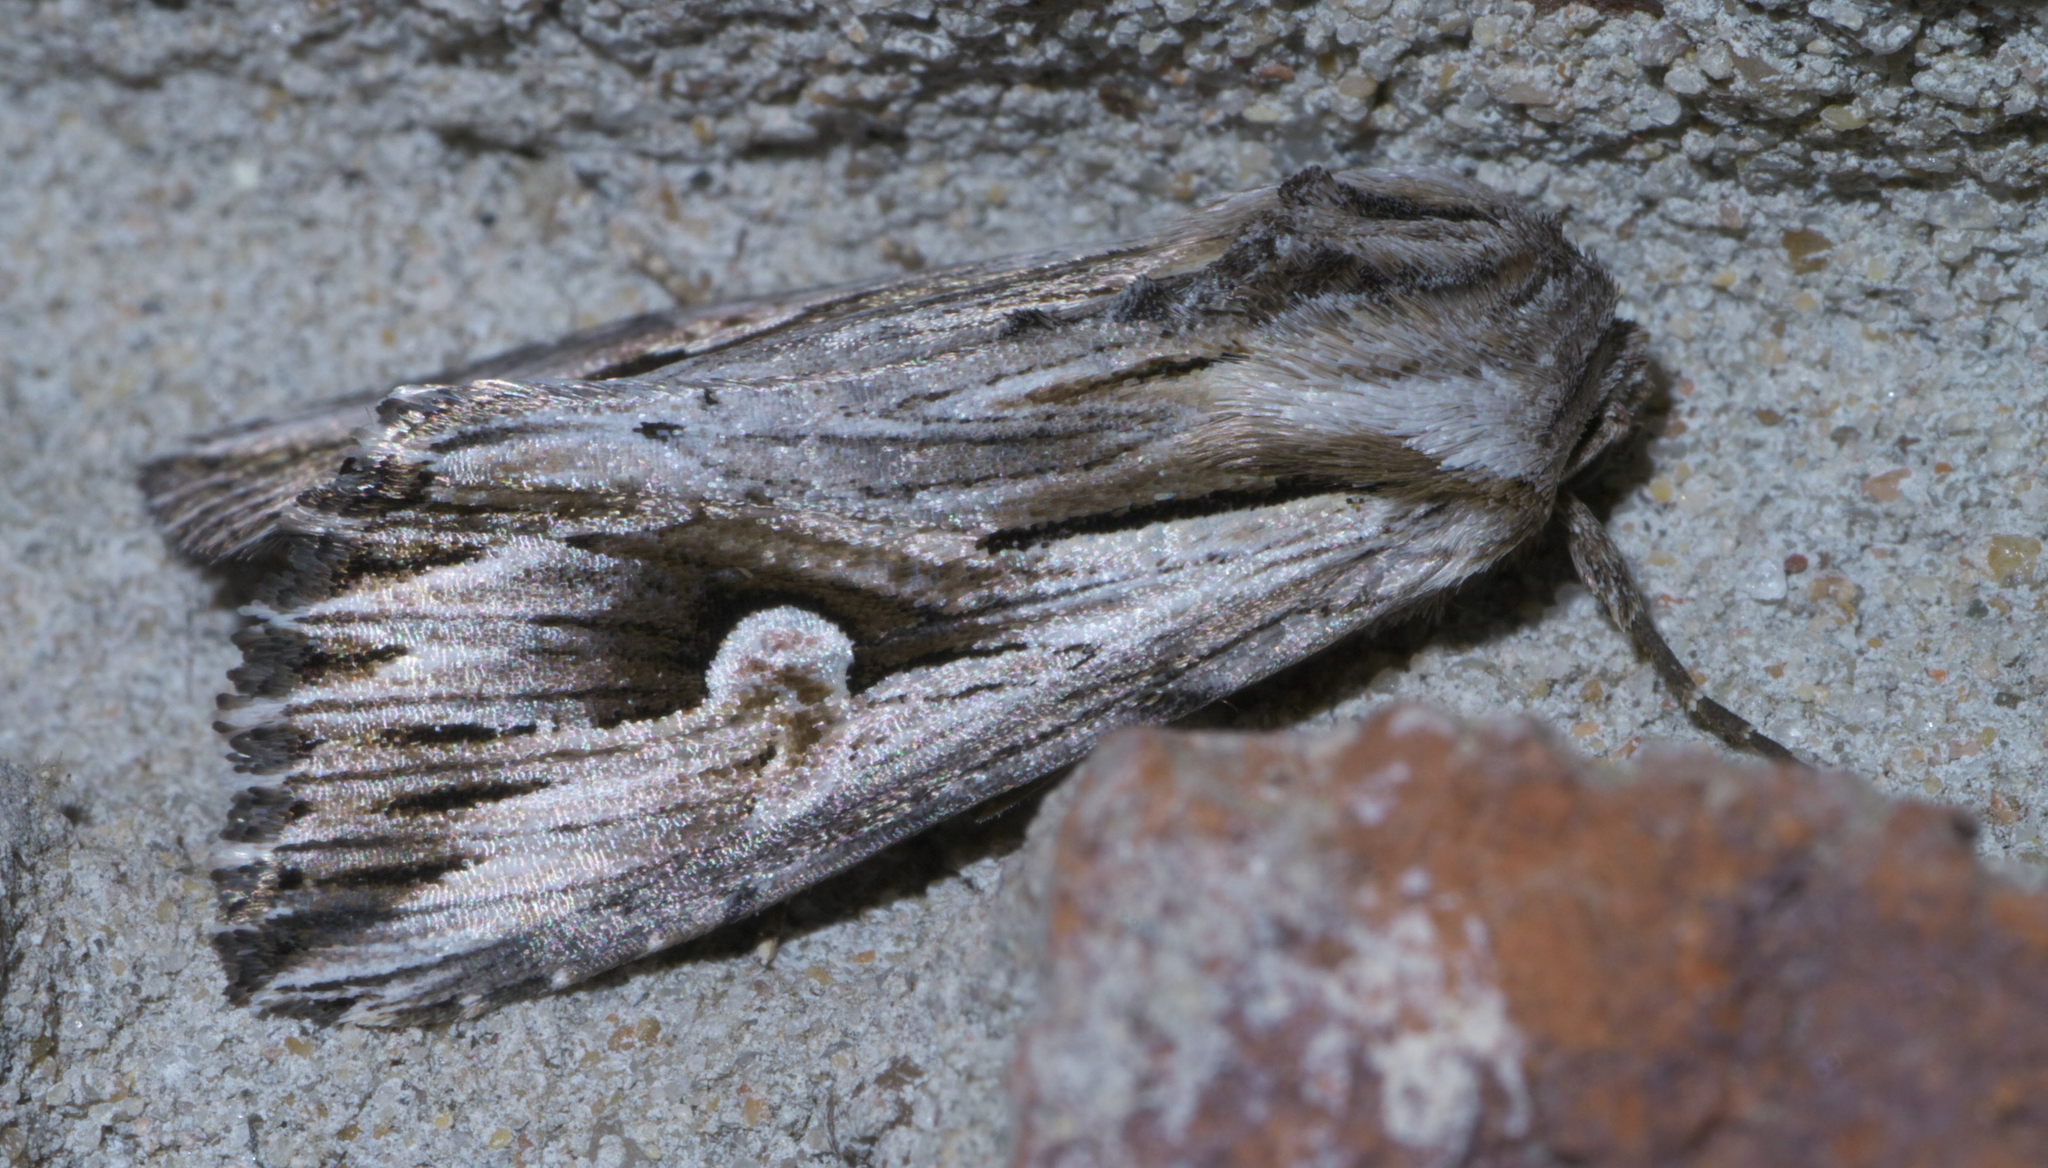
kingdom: Animalia
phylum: Arthropoda
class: Insecta
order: Lepidoptera
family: Noctuidae
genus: Nedra
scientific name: Nedra ramosula
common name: Gray half-spot
